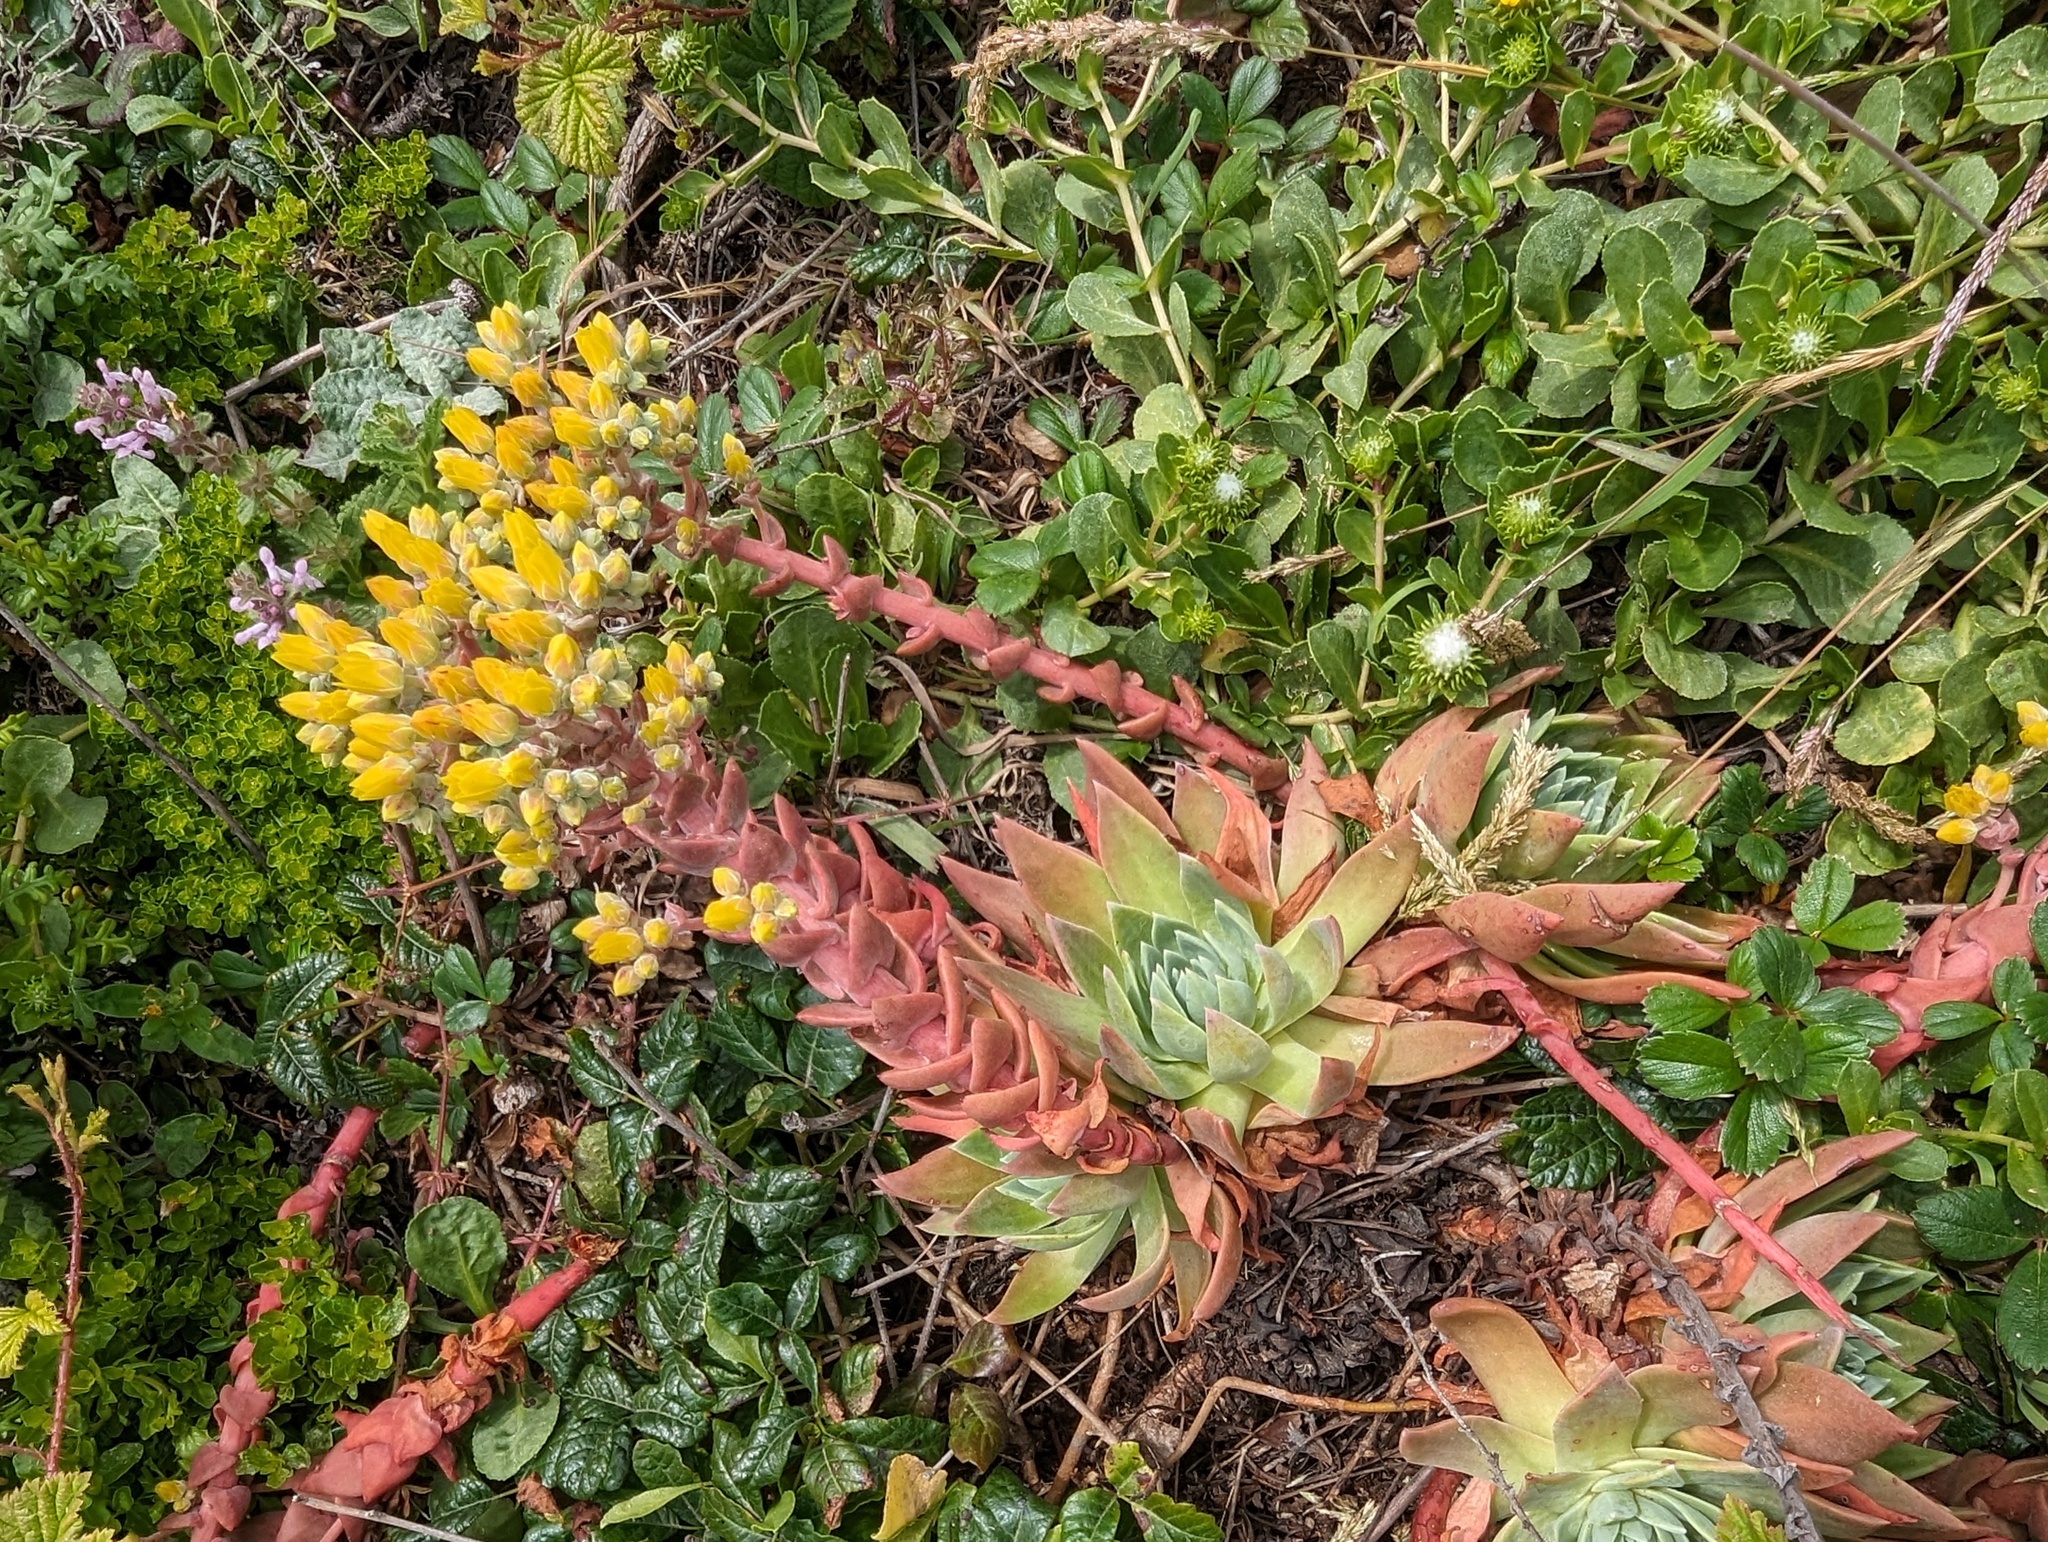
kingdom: Plantae
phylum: Tracheophyta
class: Magnoliopsida
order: Saxifragales
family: Crassulaceae
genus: Dudleya
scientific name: Dudleya caespitosa
